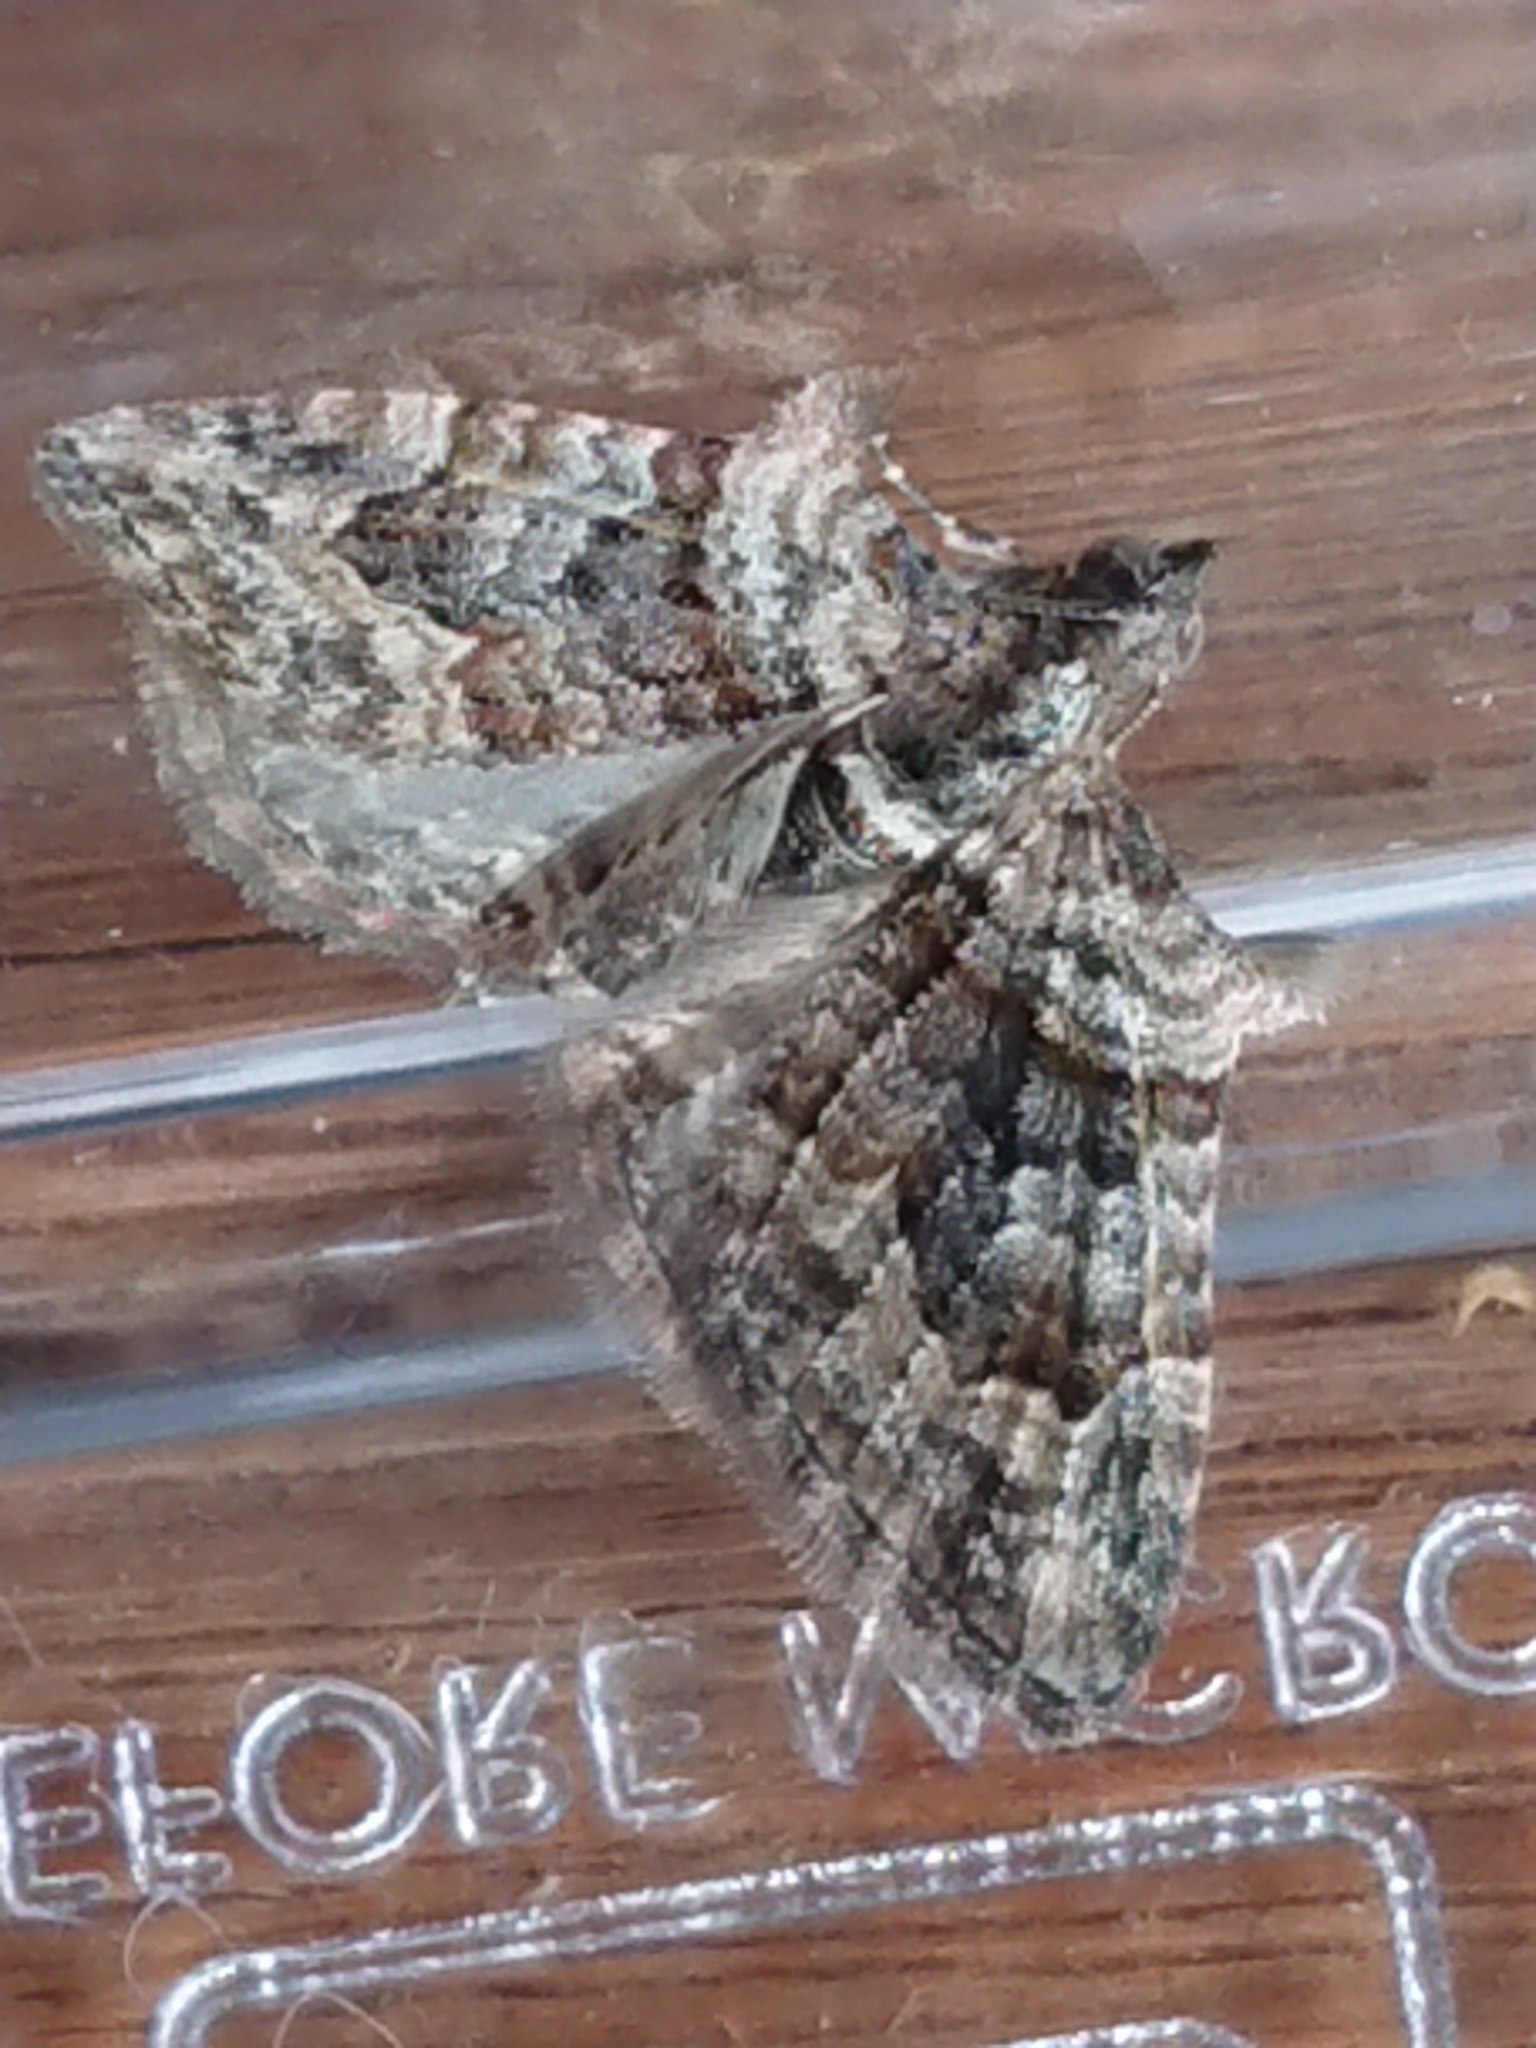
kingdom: Animalia
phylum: Arthropoda
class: Insecta
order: Lepidoptera
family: Geometridae
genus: Phrissogonus
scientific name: Phrissogonus laticostata
